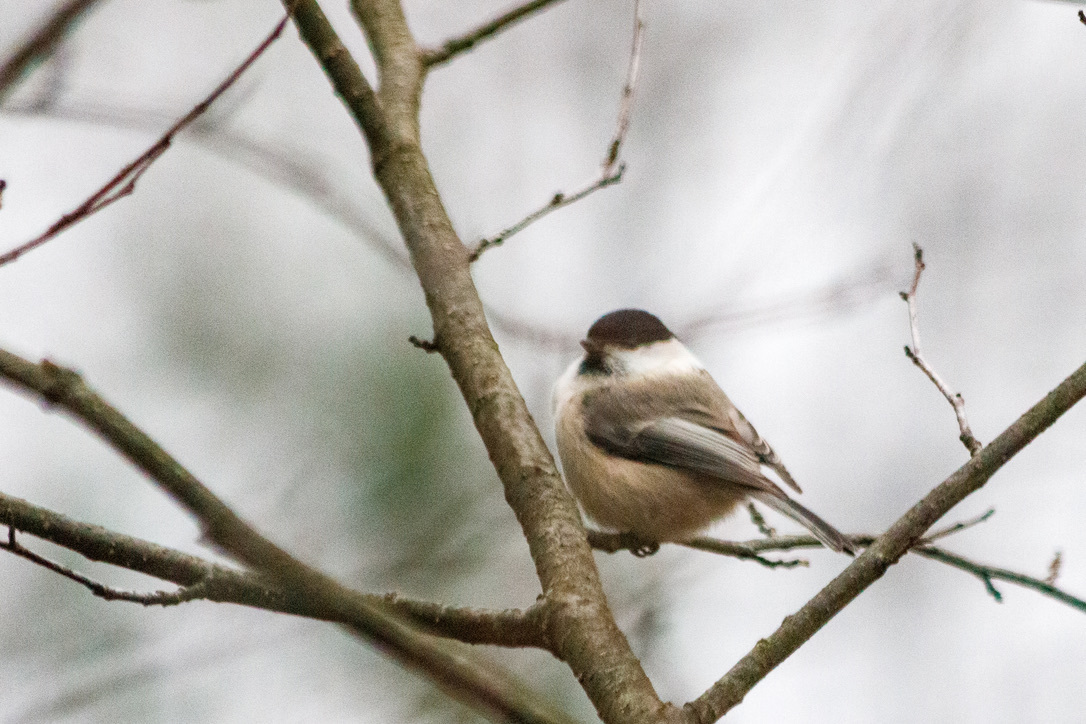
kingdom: Animalia
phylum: Chordata
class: Aves
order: Passeriformes
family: Paridae
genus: Poecile
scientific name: Poecile montanus
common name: Willow tit
